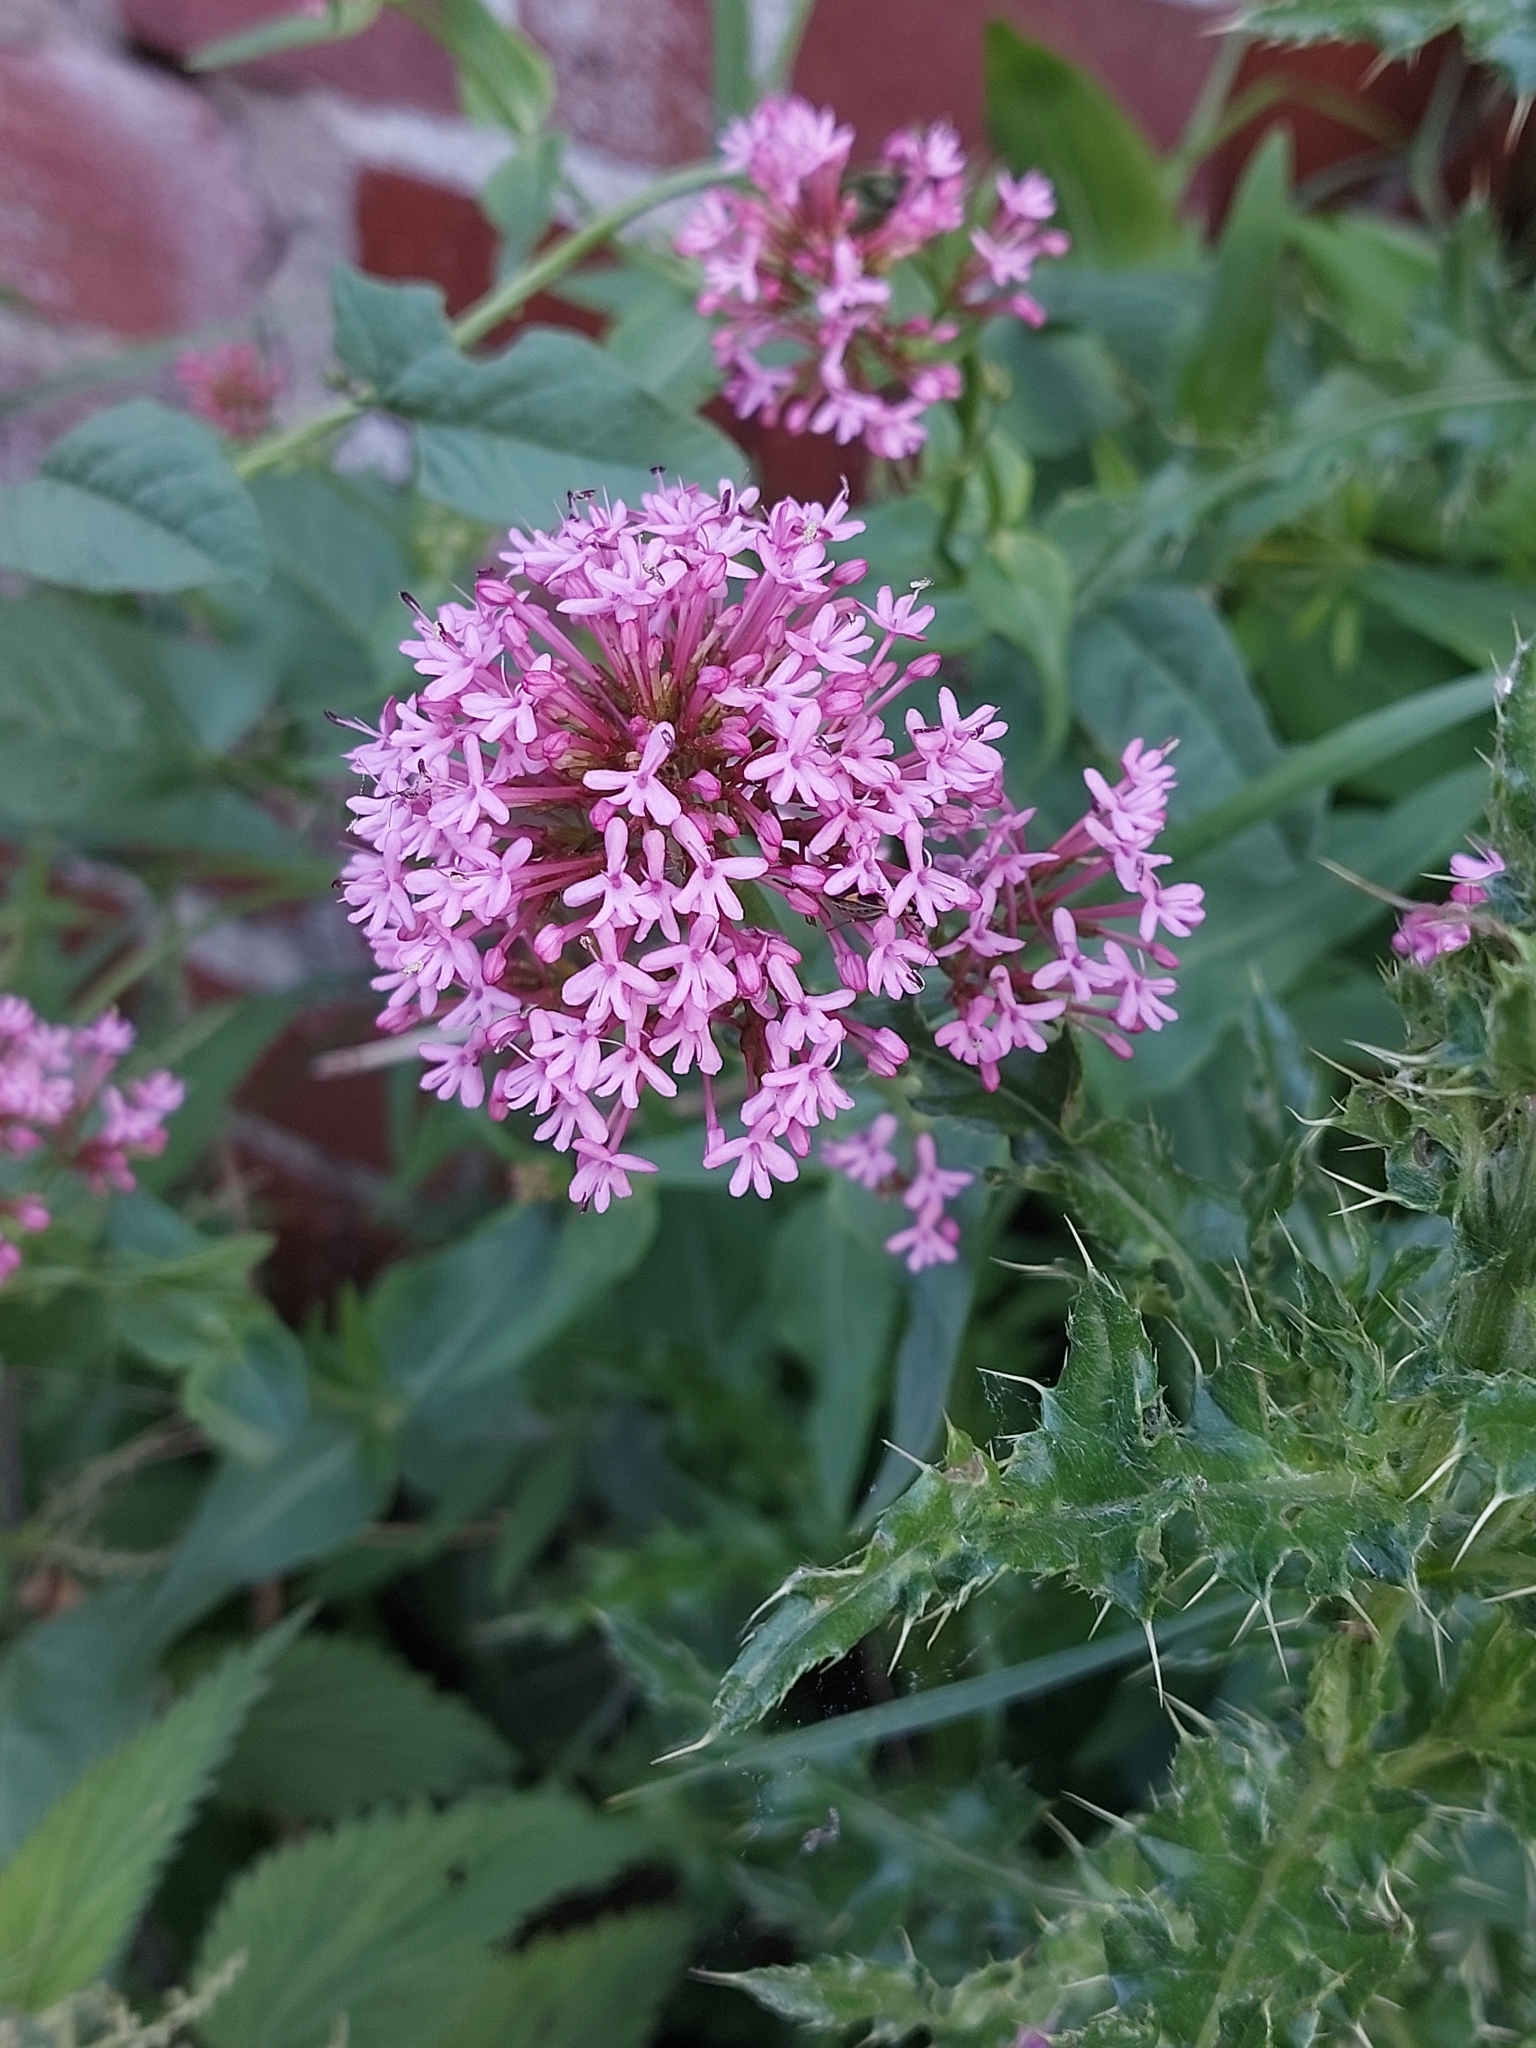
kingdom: Plantae
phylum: Tracheophyta
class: Magnoliopsida
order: Dipsacales
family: Caprifoliaceae
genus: Centranthus
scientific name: Centranthus ruber
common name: Red valerian
